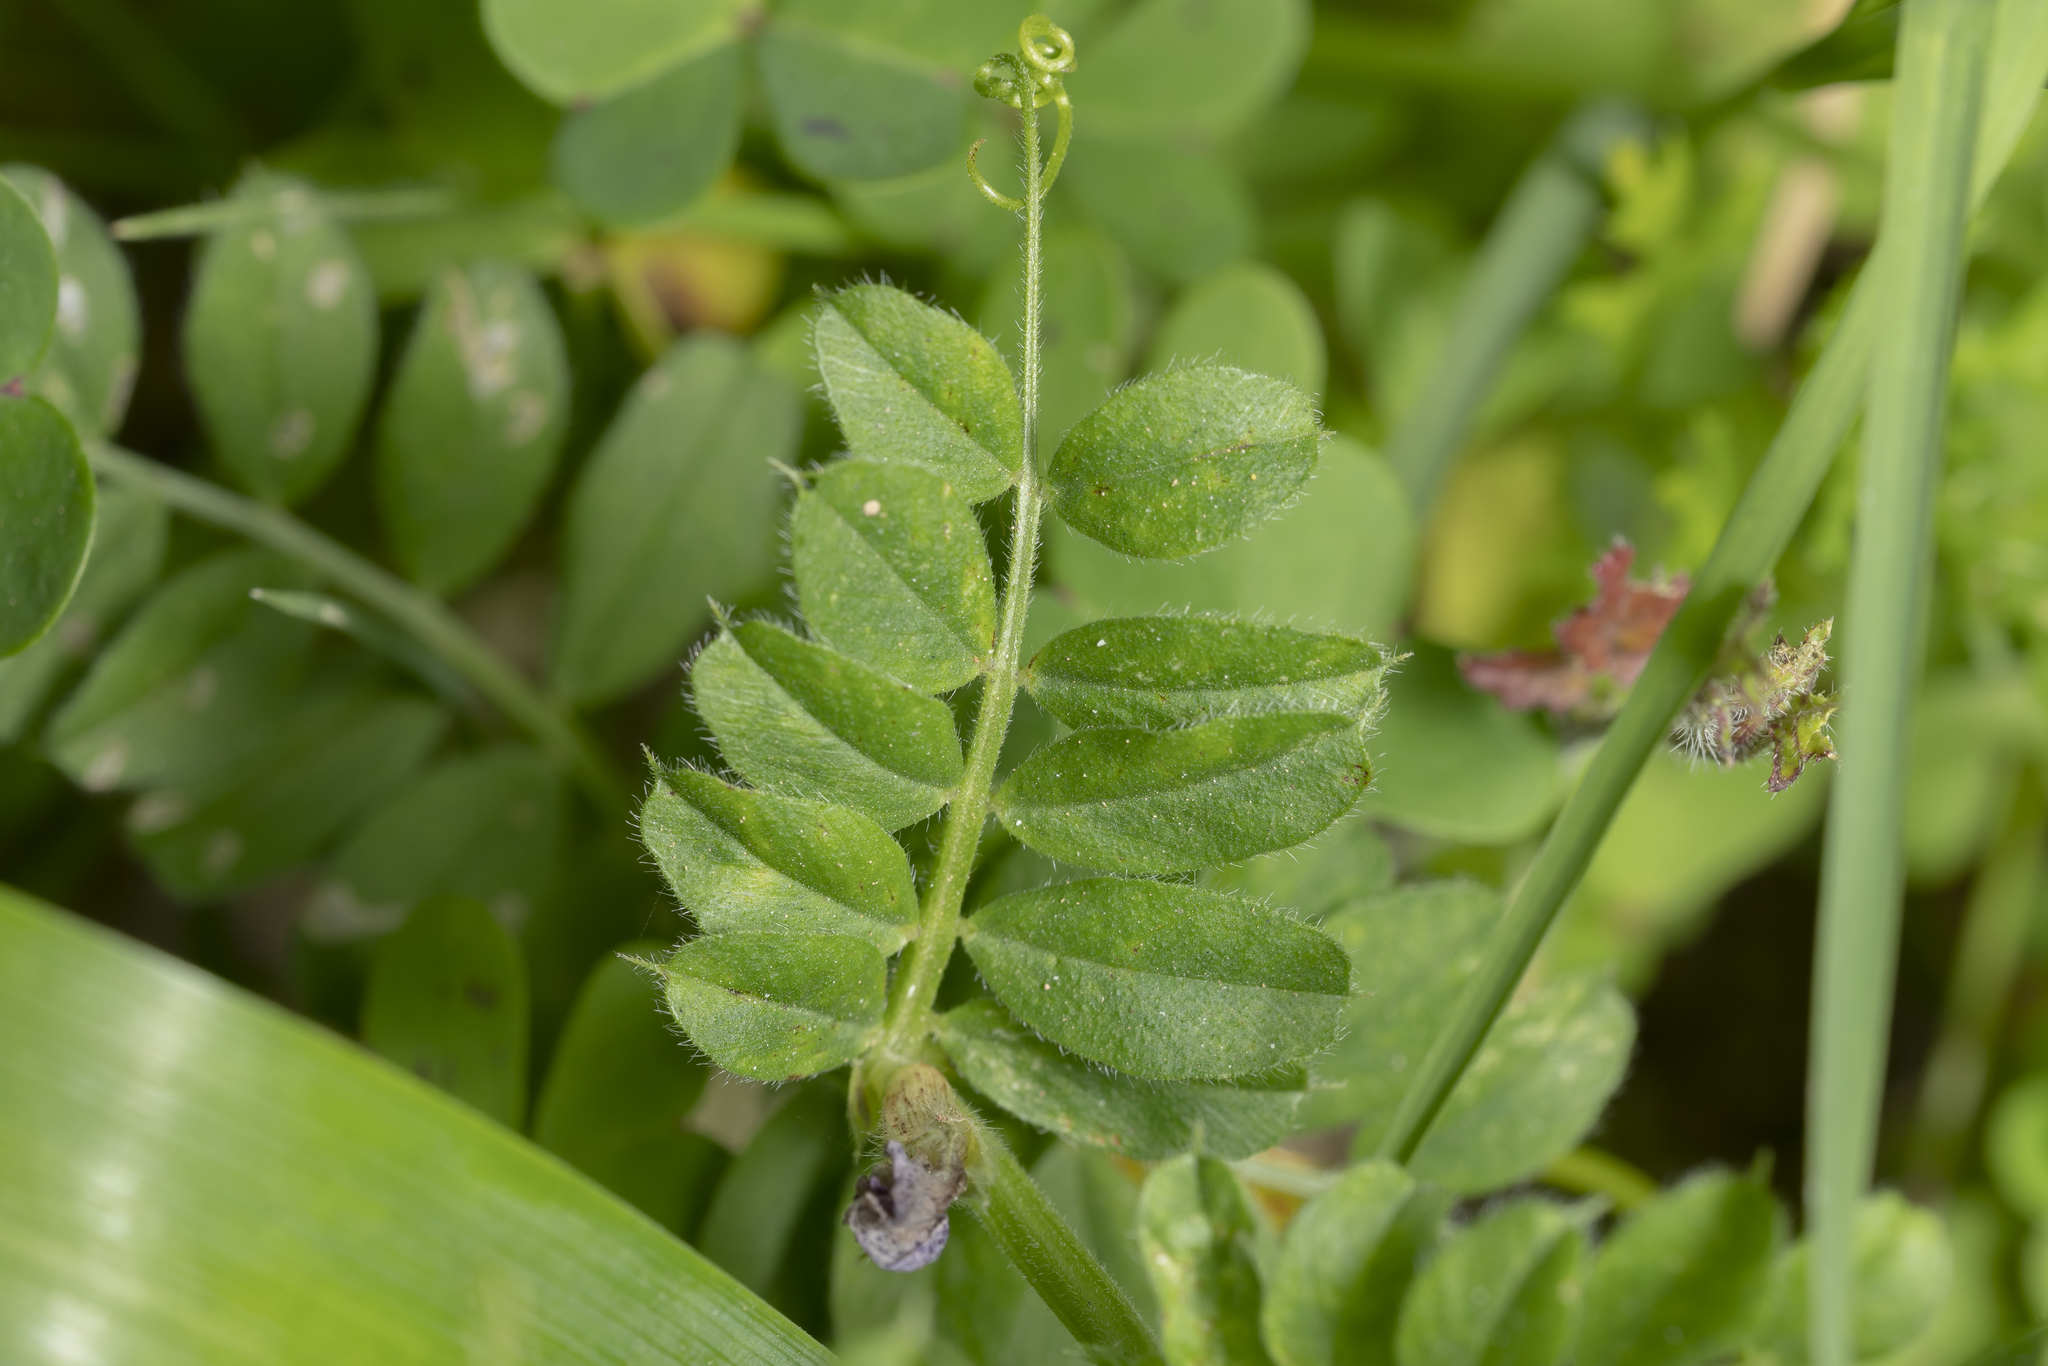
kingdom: Plantae
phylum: Tracheophyta
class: Magnoliopsida
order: Fabales
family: Fabaceae
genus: Vicia
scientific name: Vicia sativa
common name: Garden vetch
